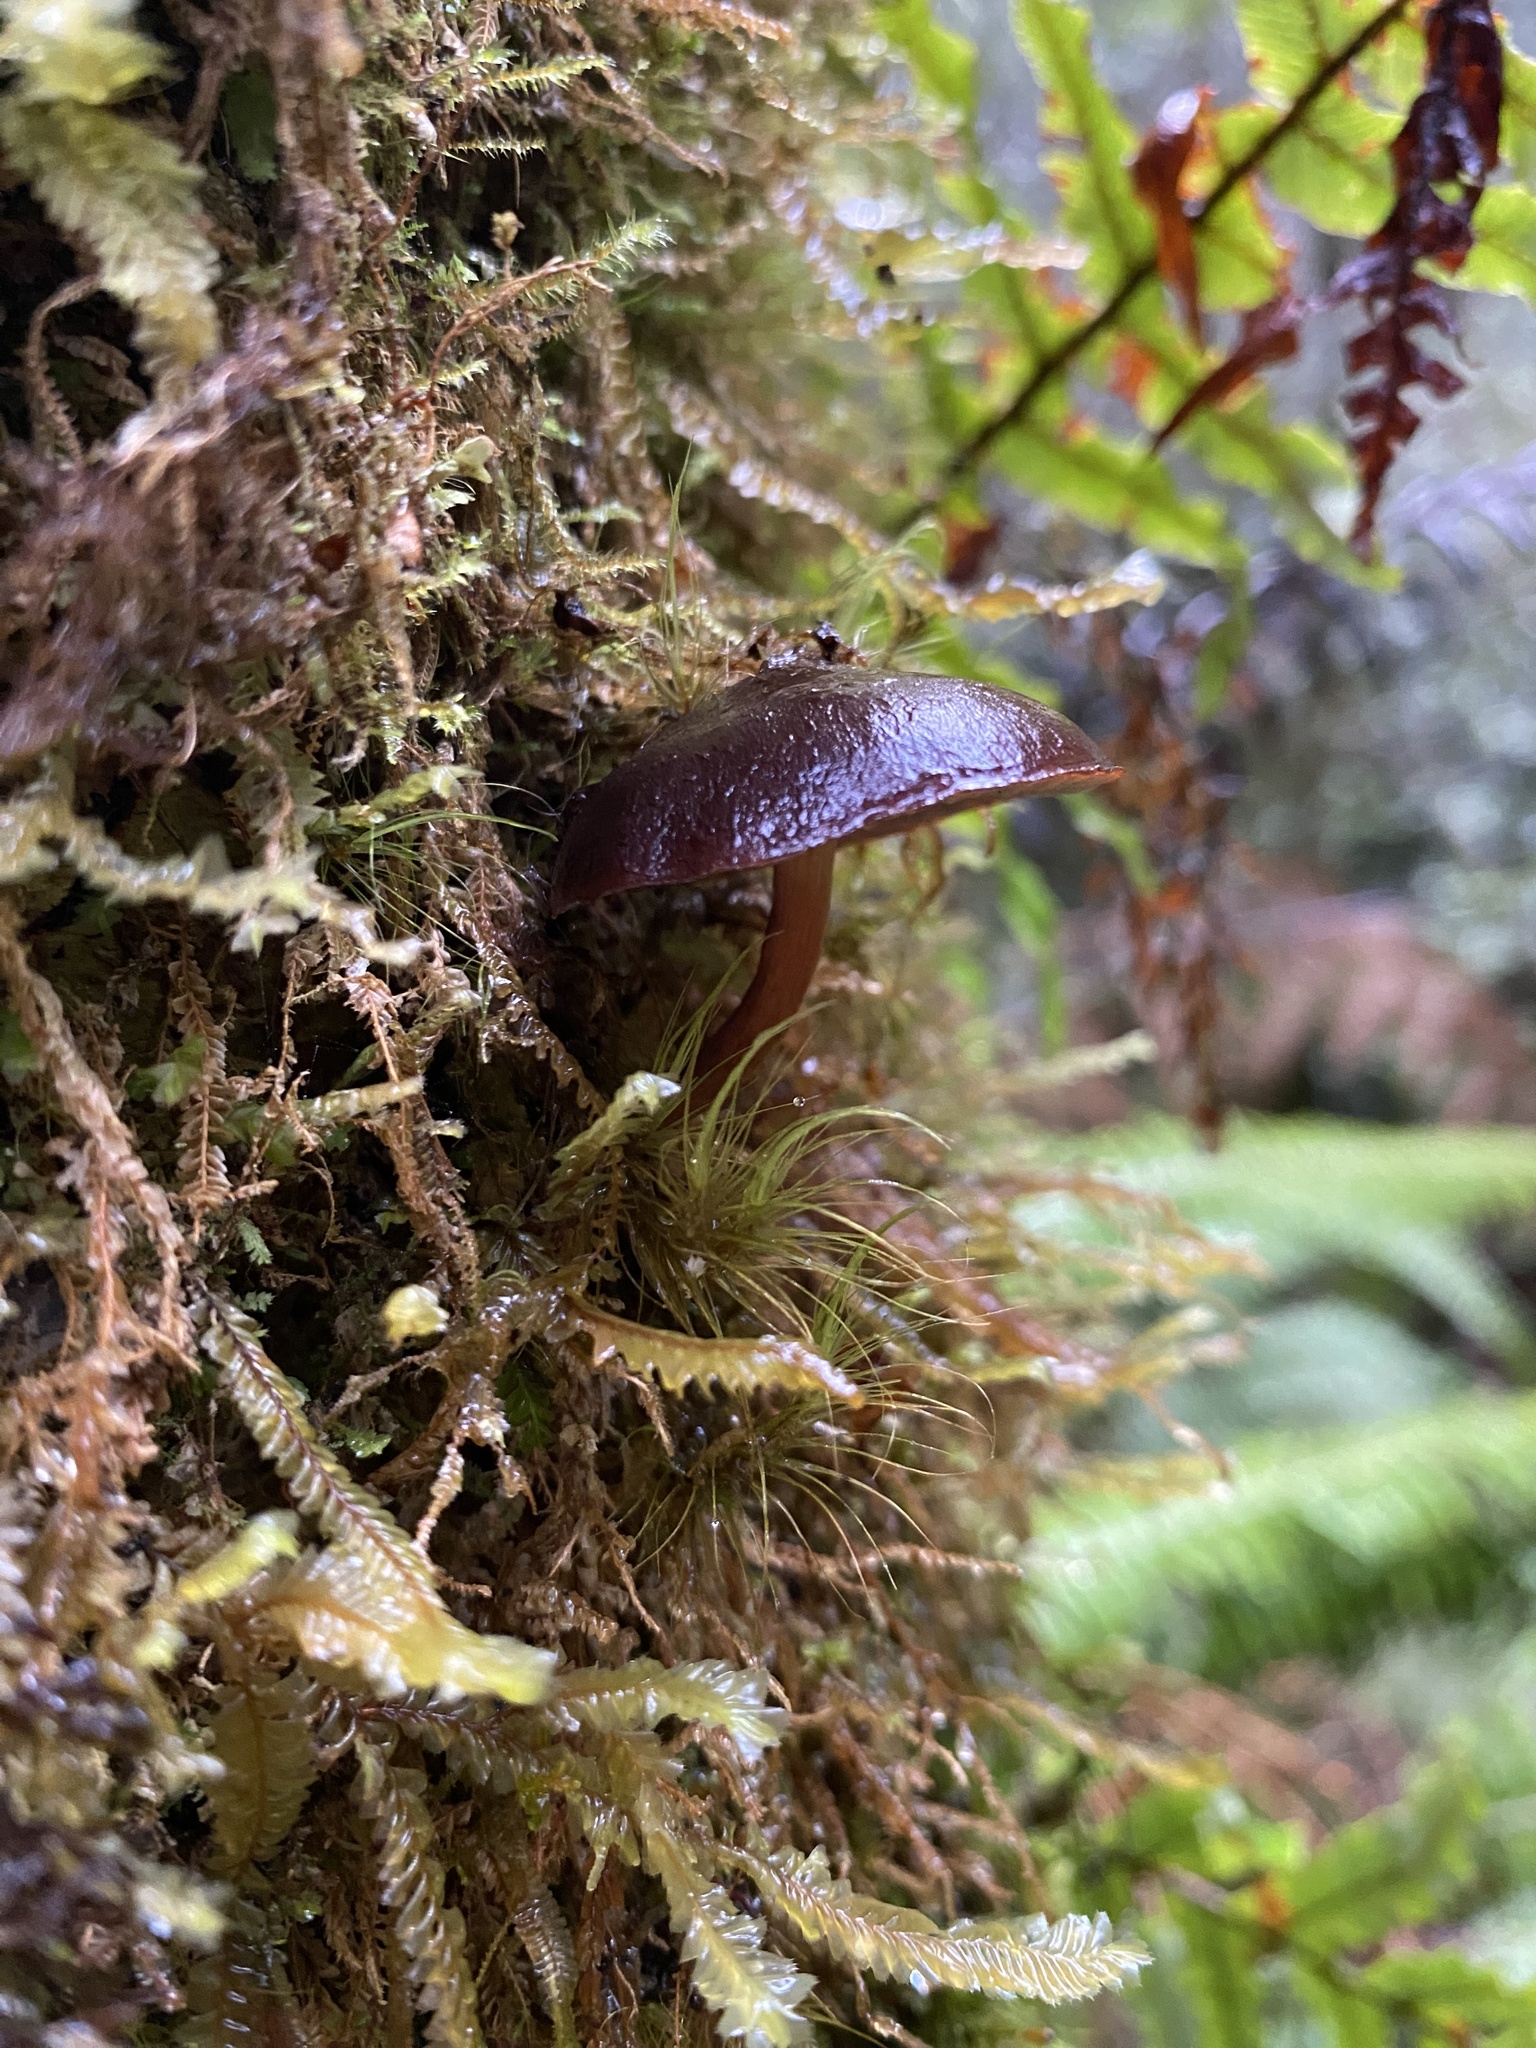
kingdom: Fungi
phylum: Basidiomycota
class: Agaricomycetes
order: Agaricales
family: Strophariaceae
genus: Hypholoma
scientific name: Hypholoma brunneum
